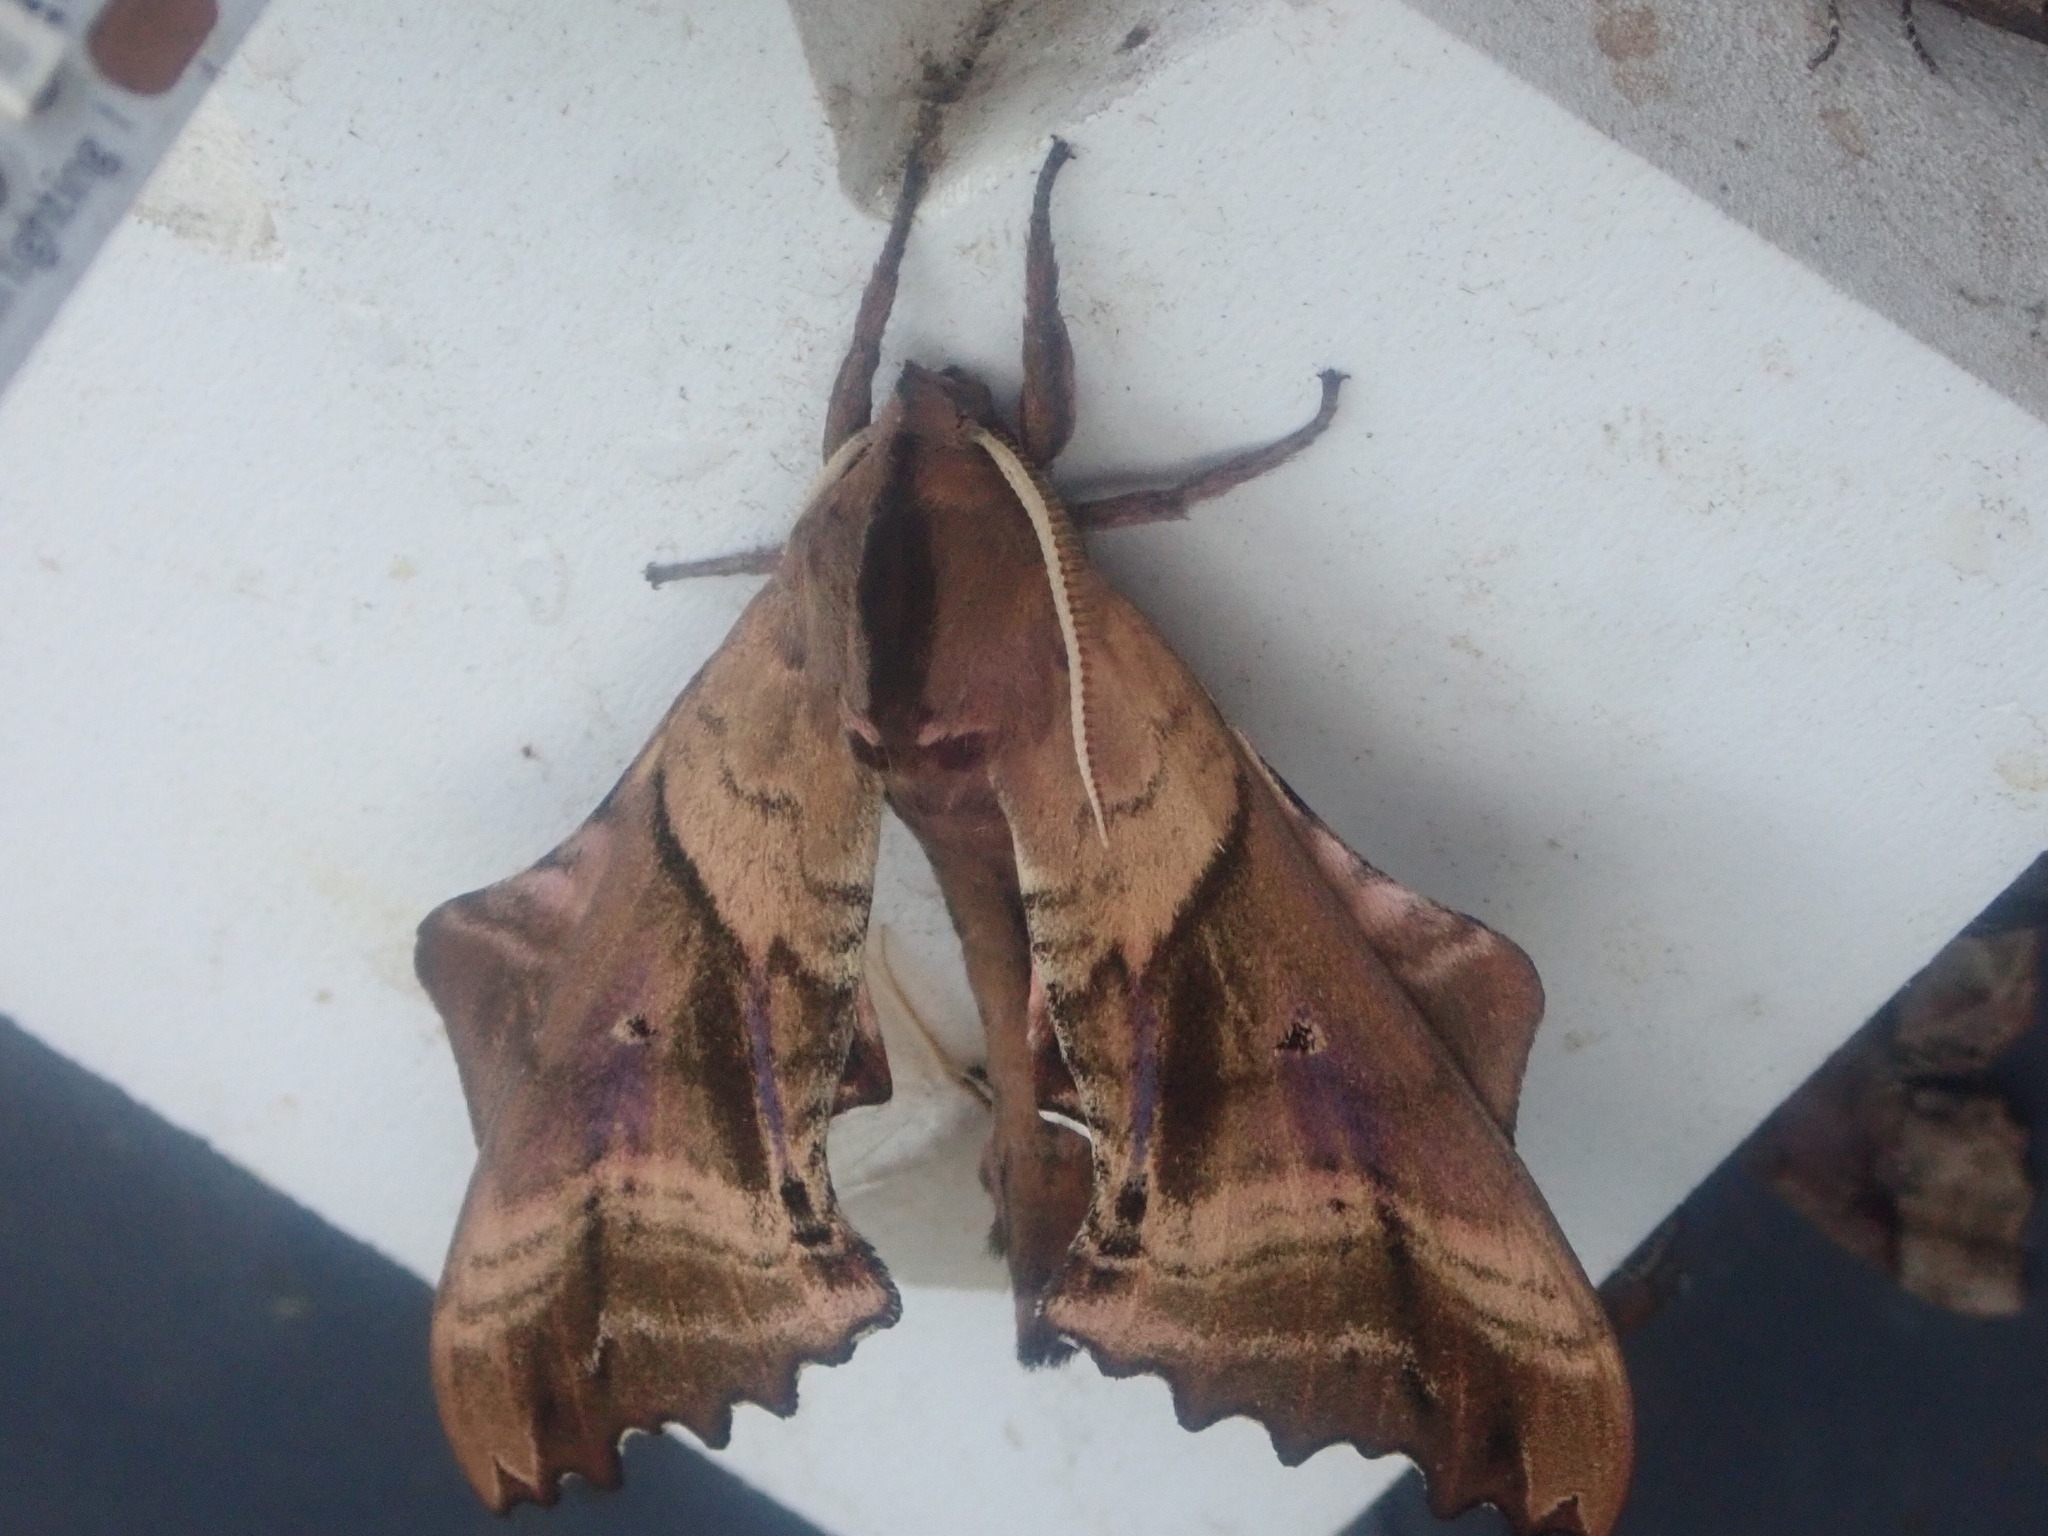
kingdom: Animalia
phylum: Arthropoda
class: Insecta
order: Lepidoptera
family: Sphingidae
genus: Paonias
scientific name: Paonias excaecata
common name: Blind-eyed sphinx
